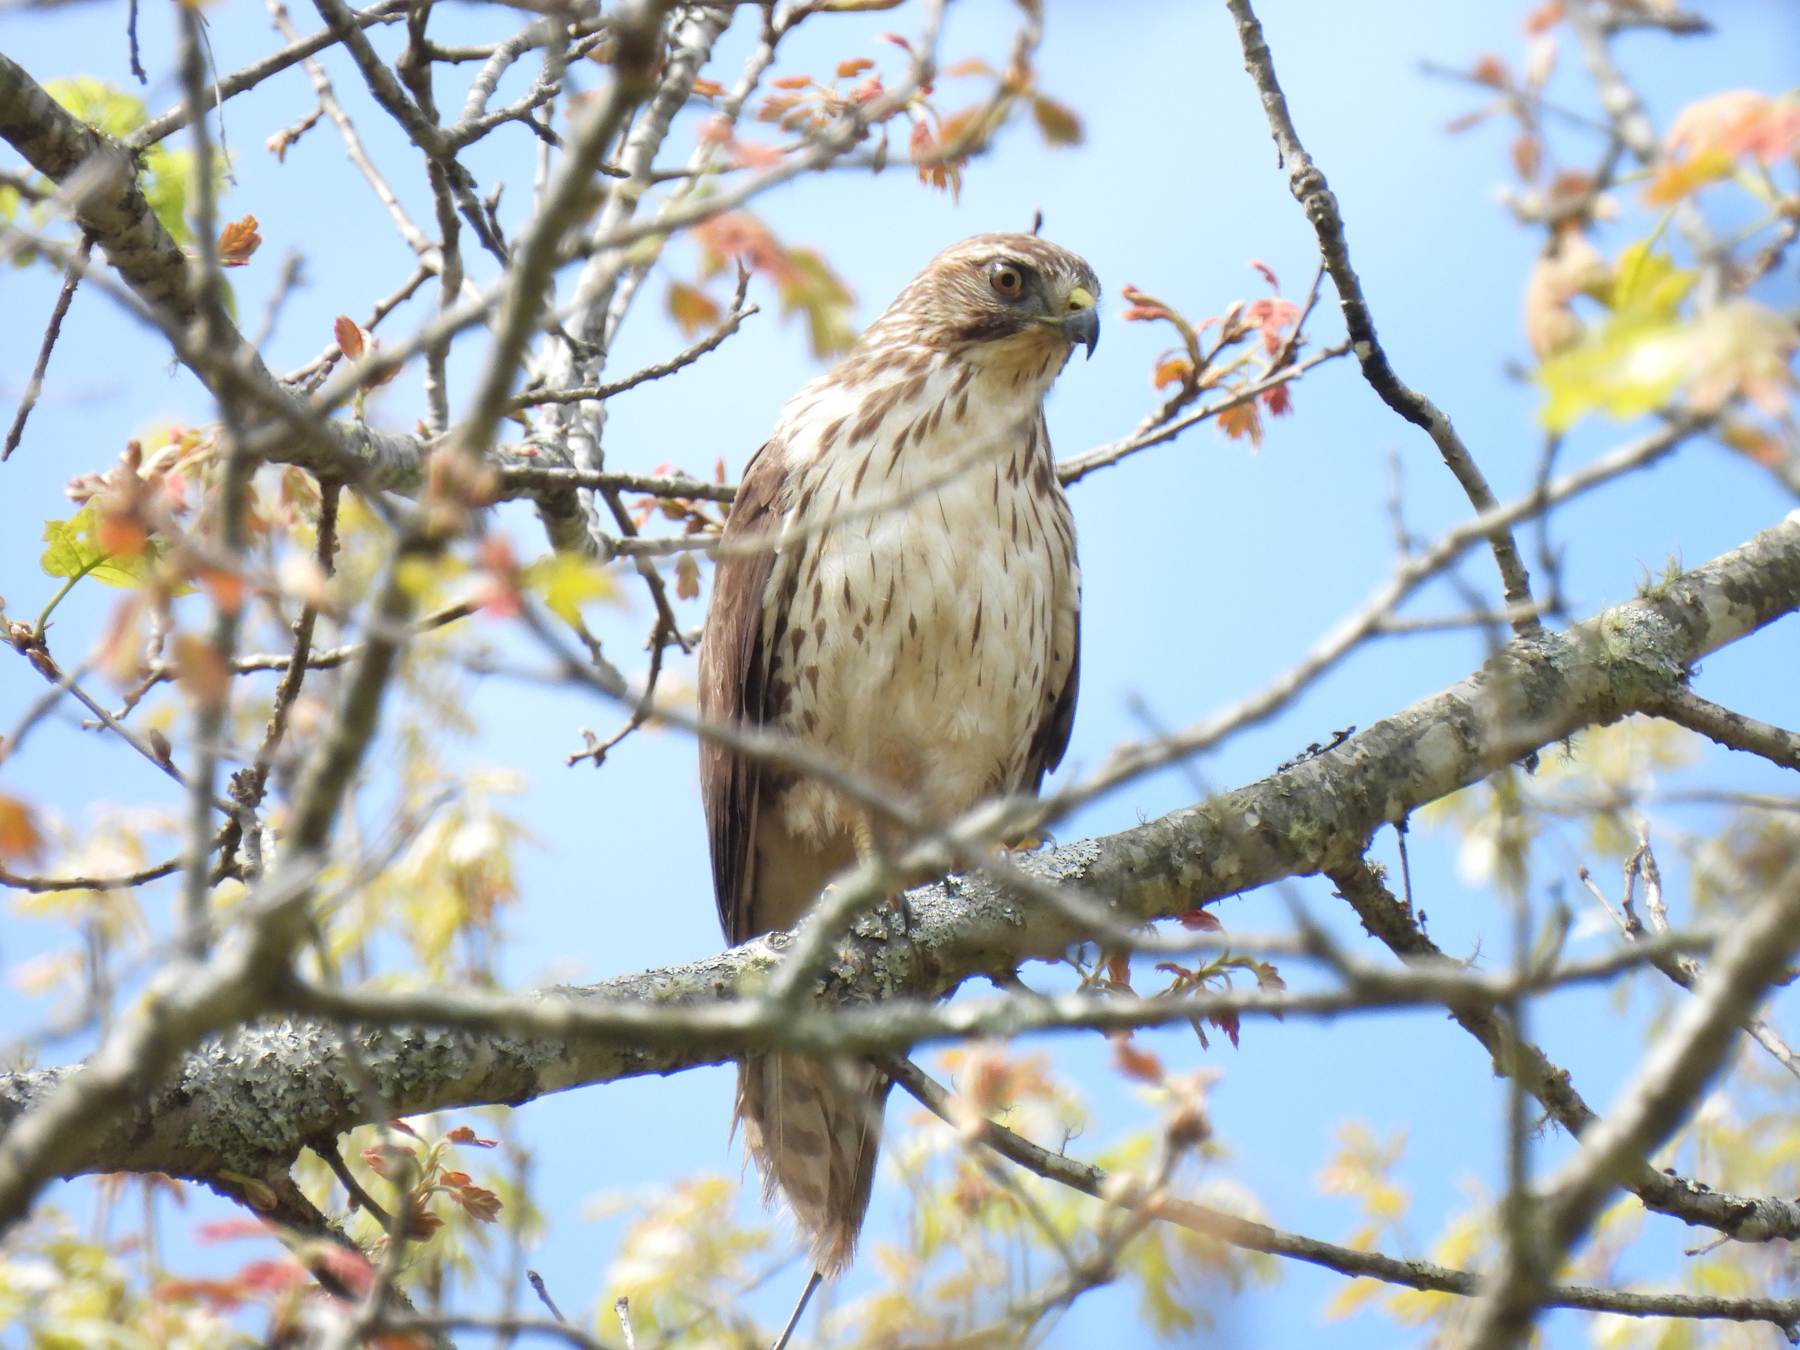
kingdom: Animalia
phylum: Chordata
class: Aves
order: Accipitriformes
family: Accipitridae
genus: Buteo
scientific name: Buteo platypterus
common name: Broad-winged hawk
